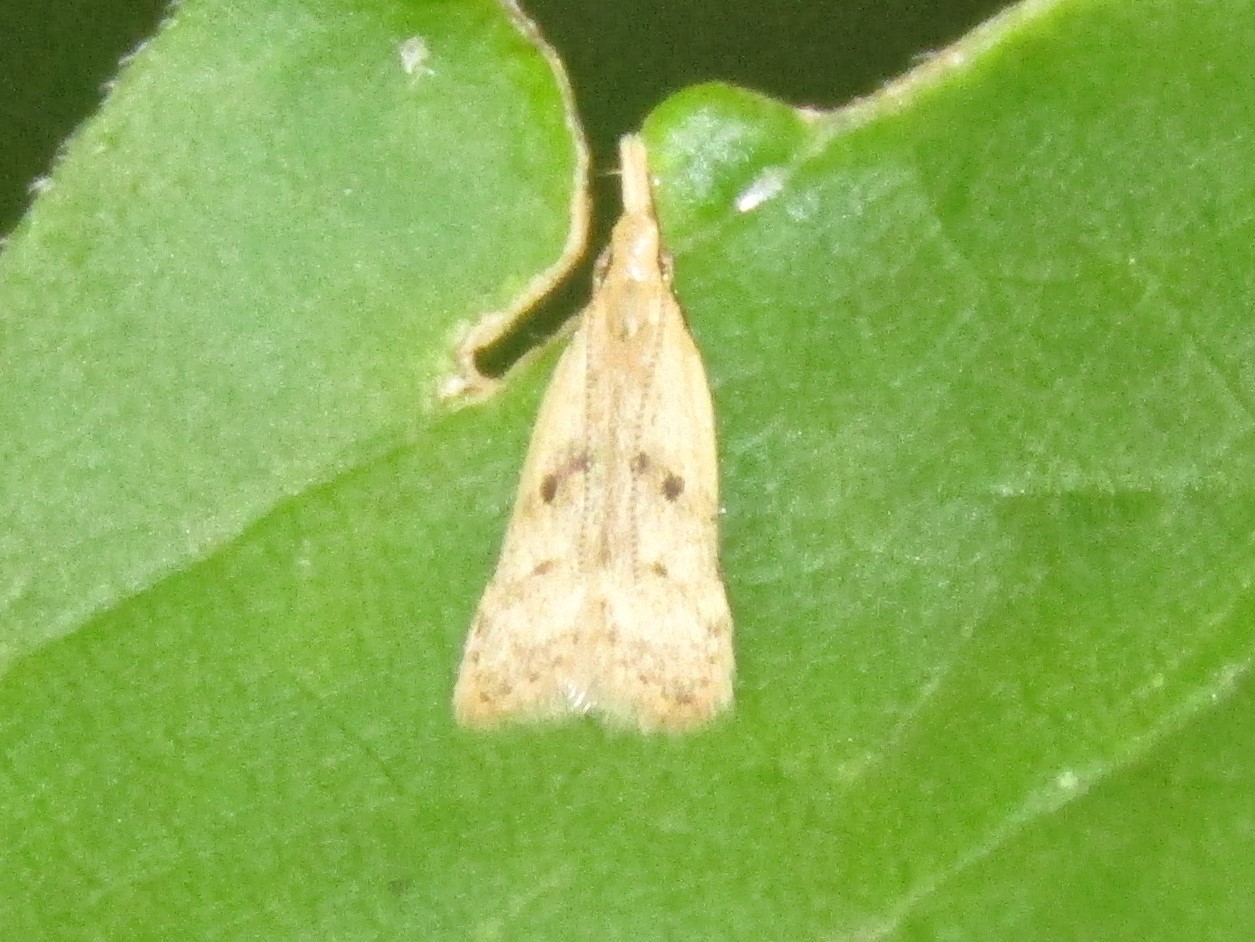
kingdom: Animalia
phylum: Arthropoda
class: Insecta
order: Lepidoptera
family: Gelechiidae
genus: Dichomeris
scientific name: Dichomeris punctipennella
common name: Many-spotted dichomeris moth
